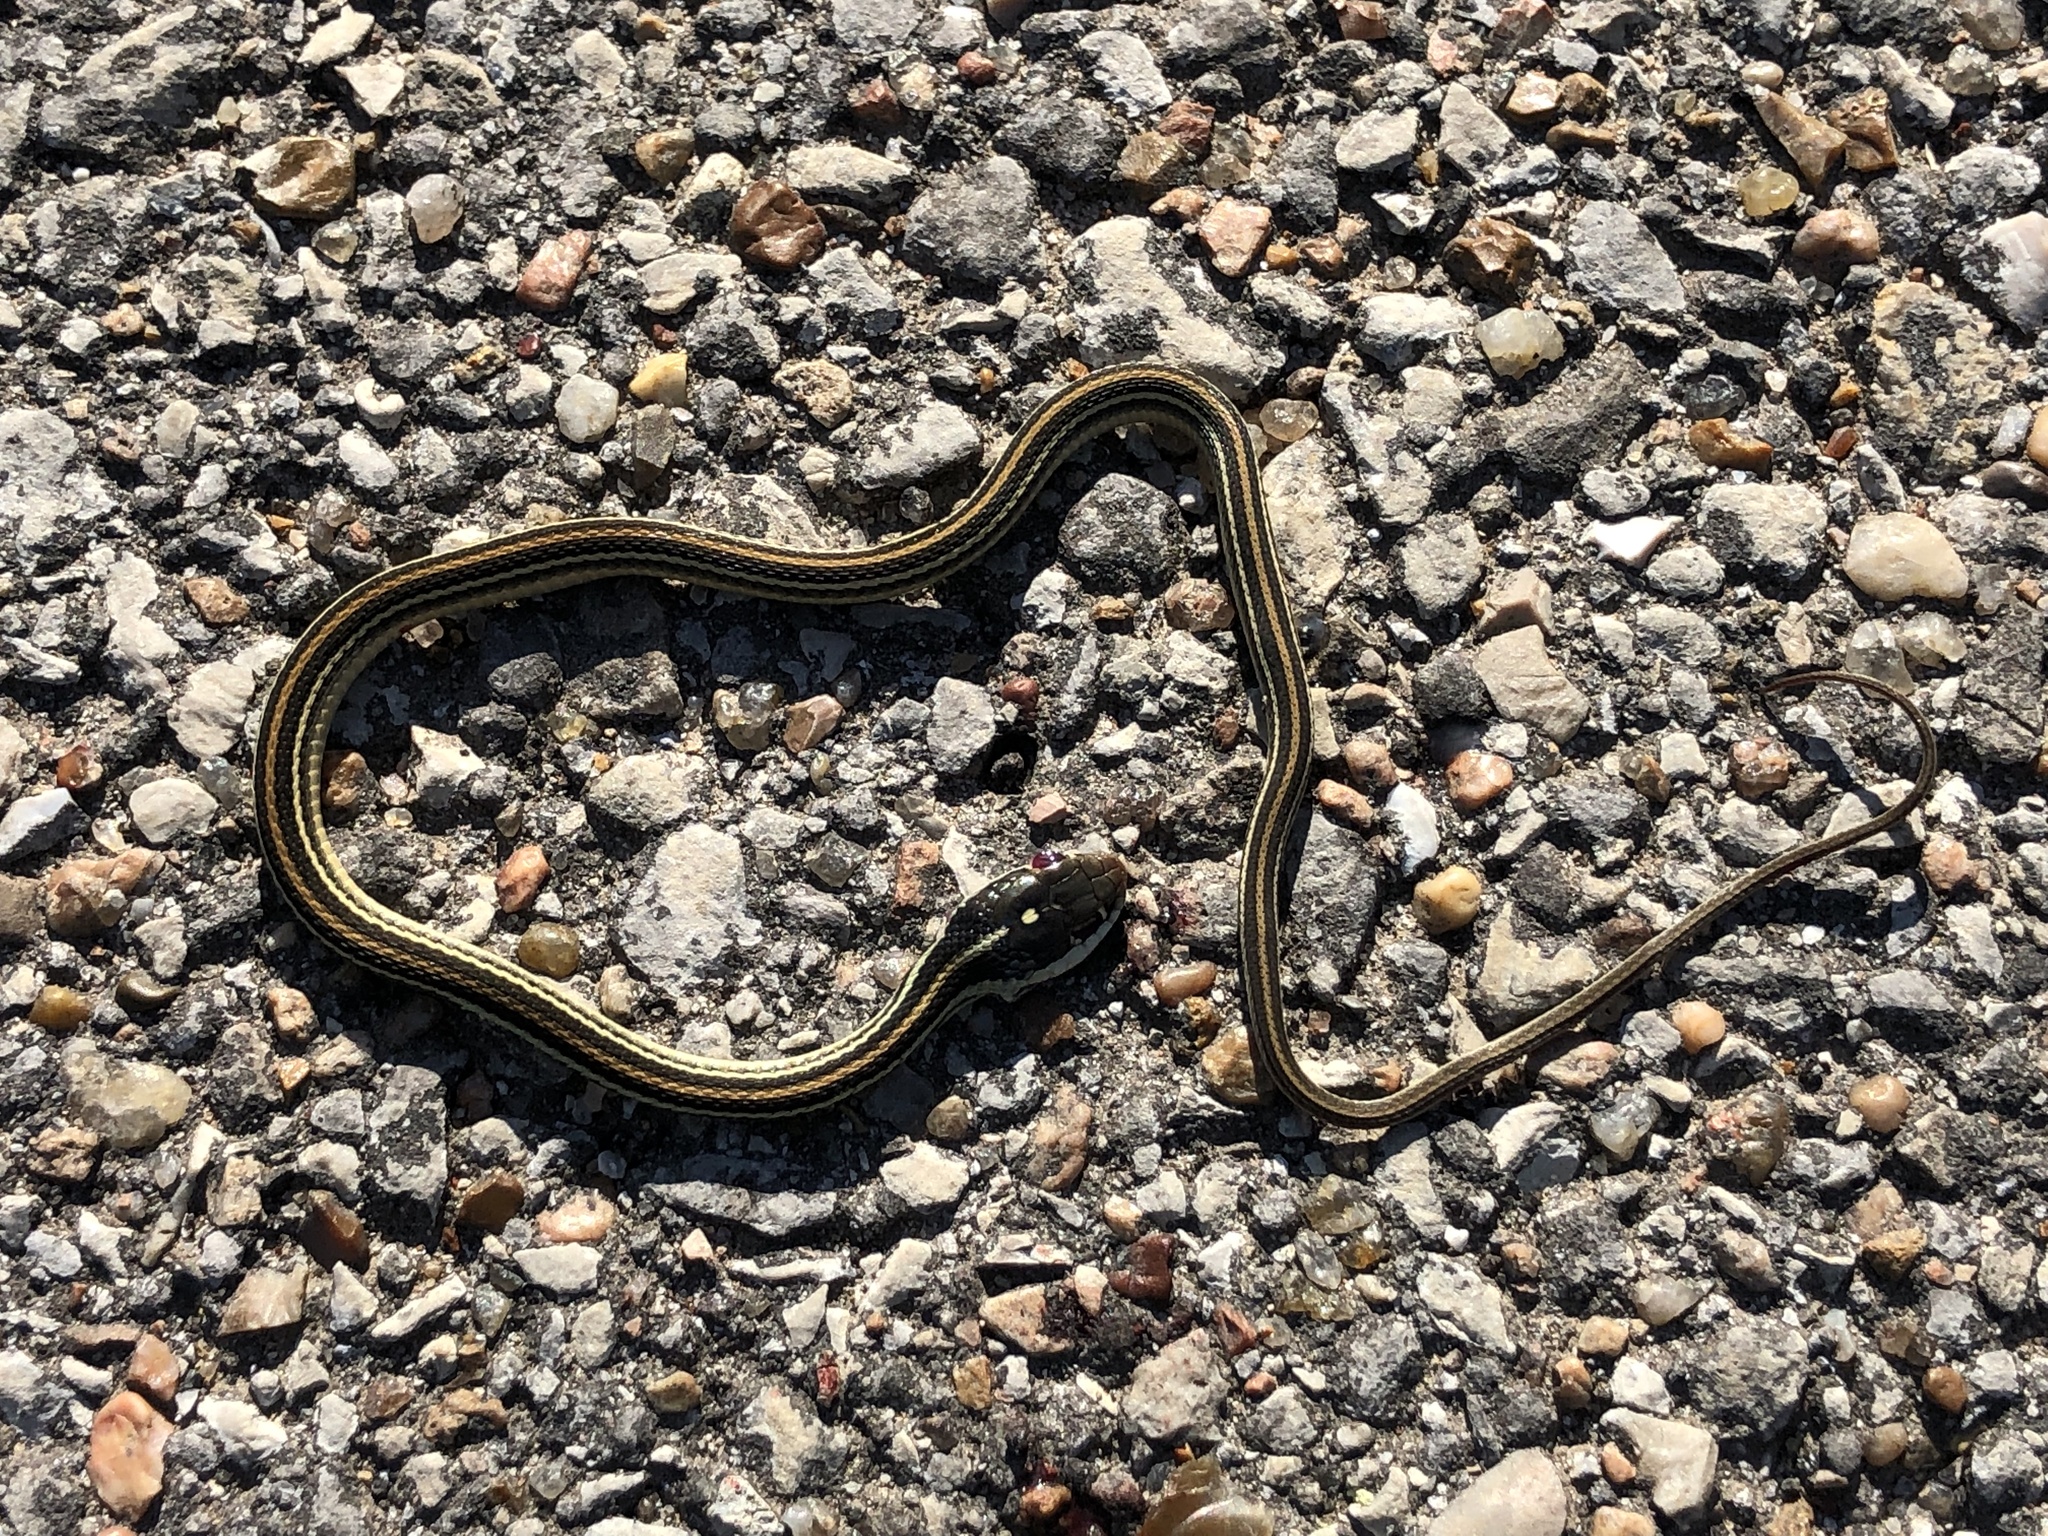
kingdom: Animalia
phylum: Chordata
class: Squamata
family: Colubridae
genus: Thamnophis
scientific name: Thamnophis proximus
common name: Western ribbon snake
